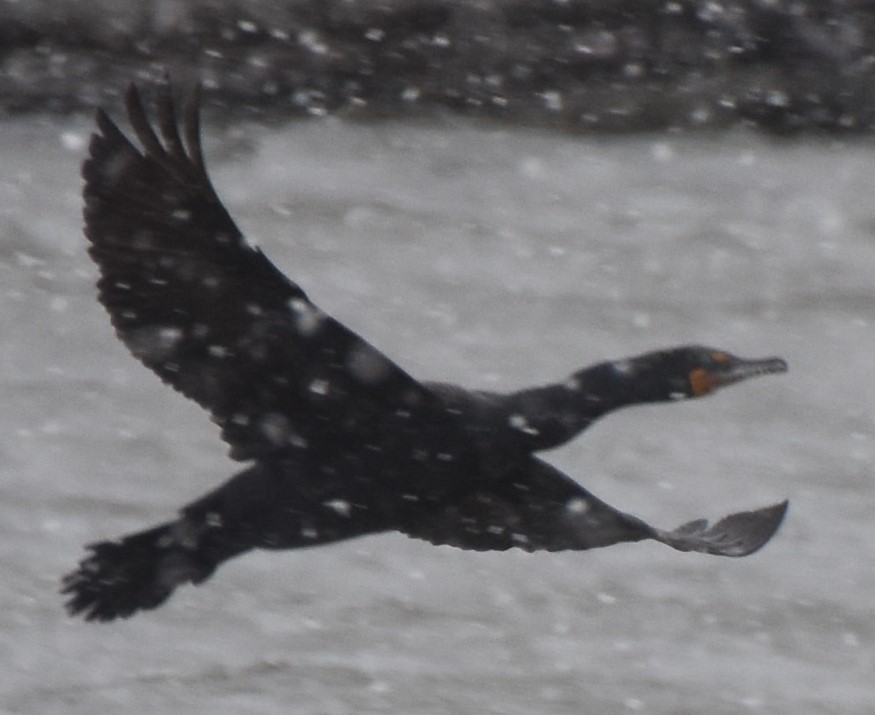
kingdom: Animalia
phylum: Chordata
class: Aves
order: Suliformes
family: Phalacrocoracidae
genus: Phalacrocorax
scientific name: Phalacrocorax auritus
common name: Double-crested cormorant
